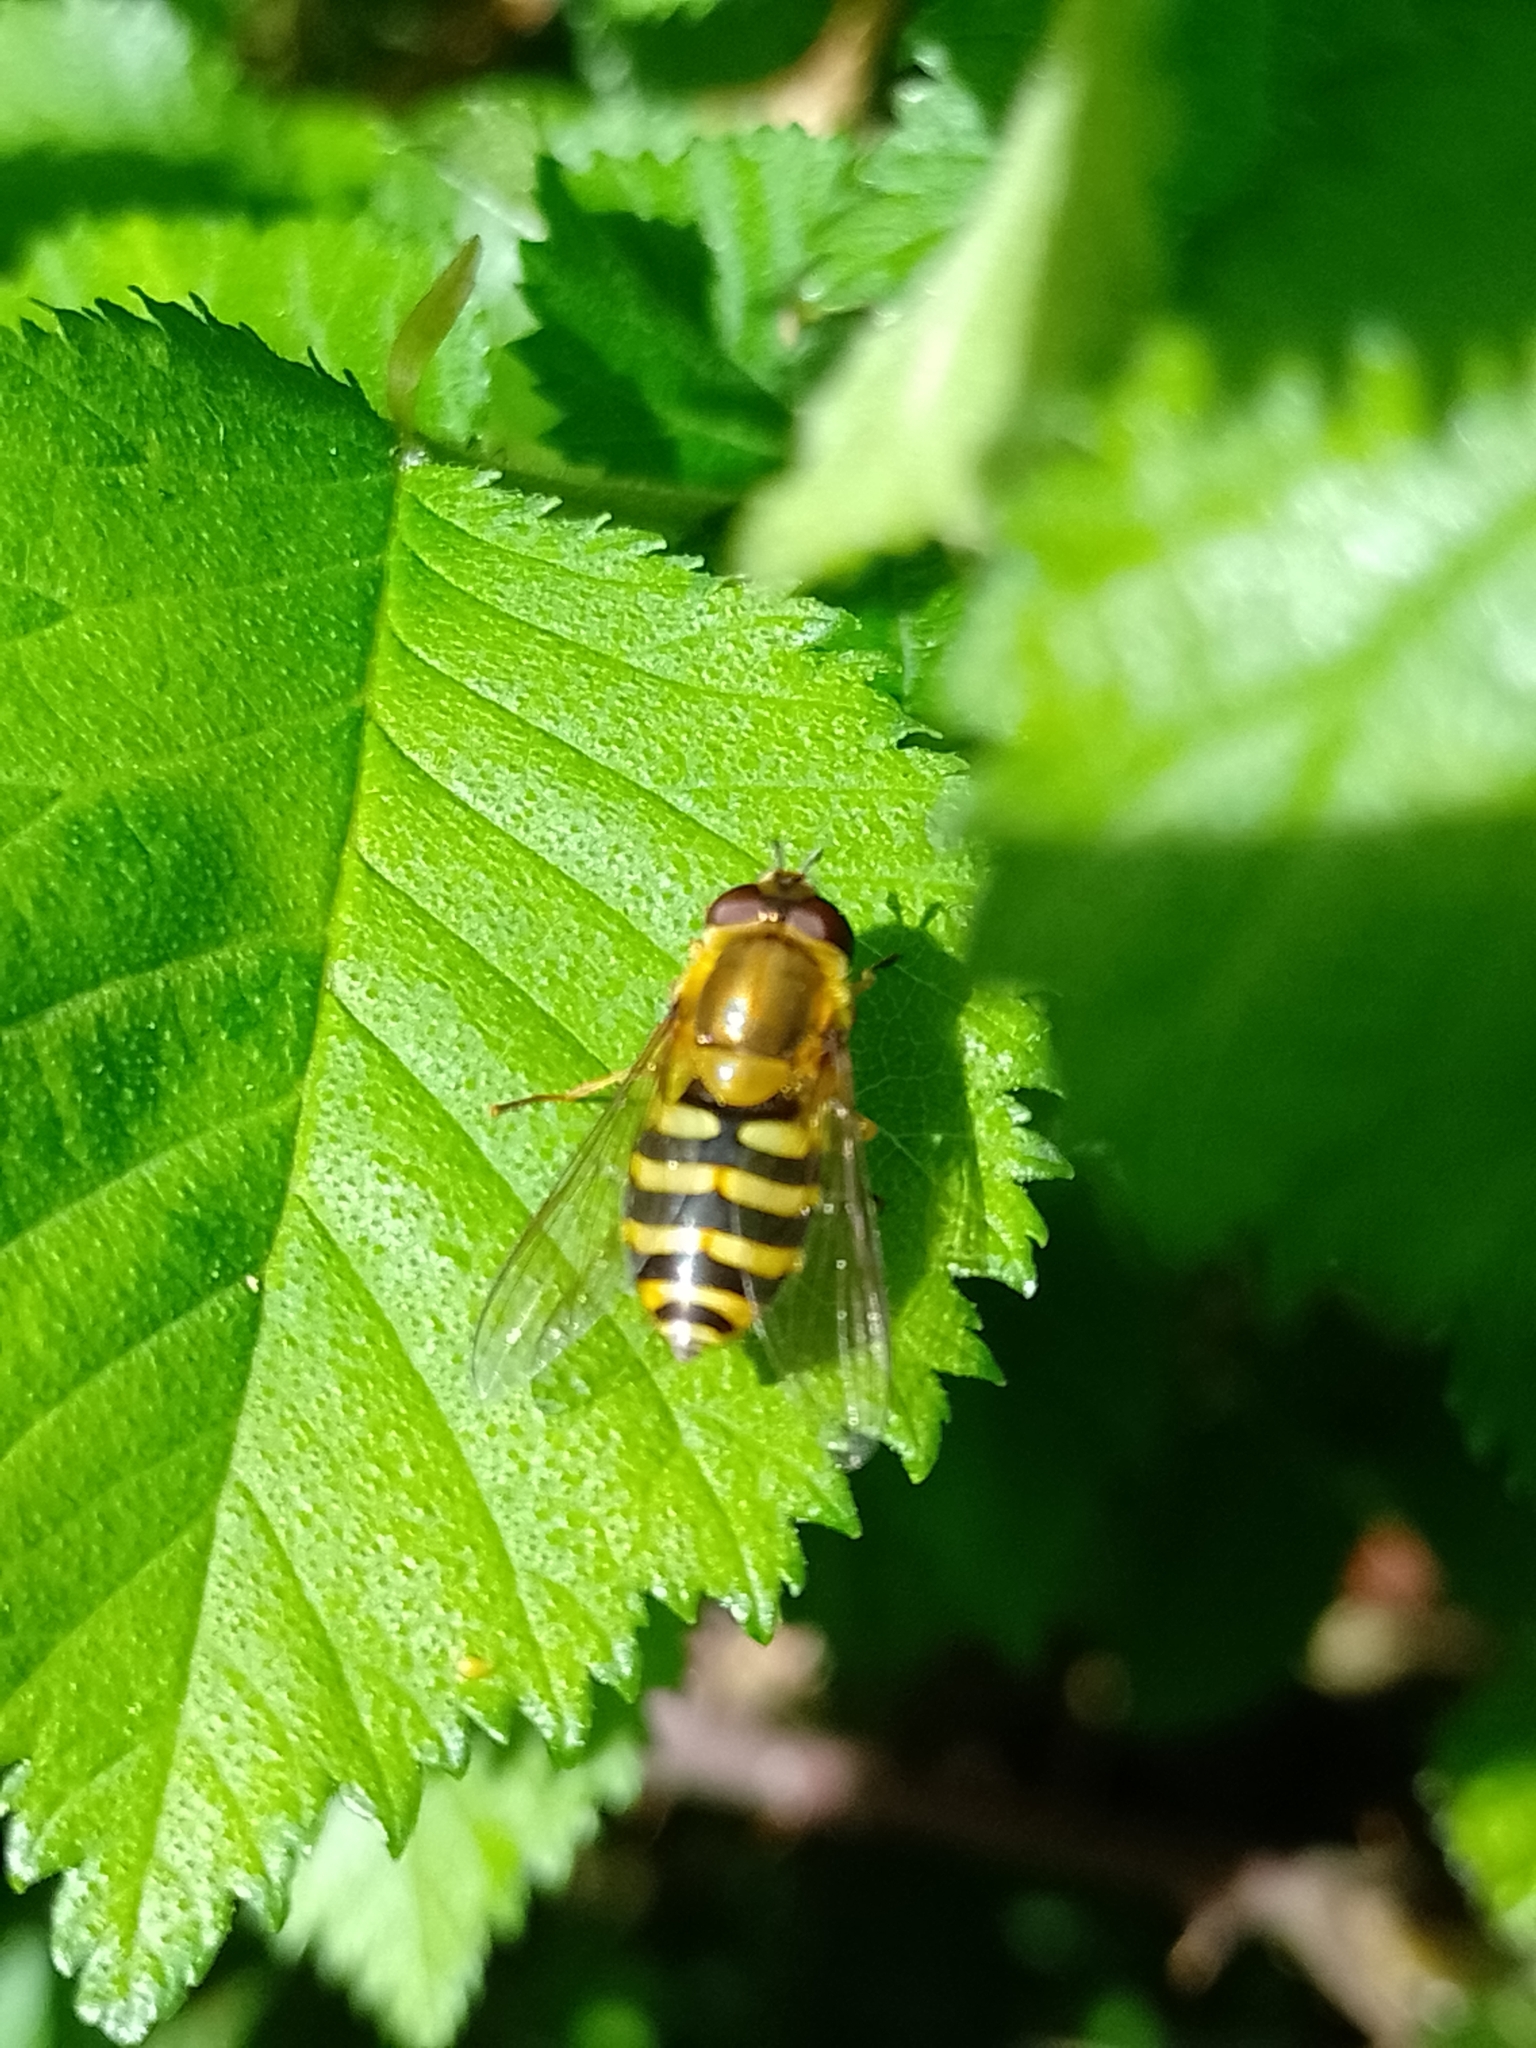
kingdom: Animalia
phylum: Arthropoda
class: Insecta
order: Diptera
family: Syrphidae
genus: Syrphus
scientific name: Syrphus
